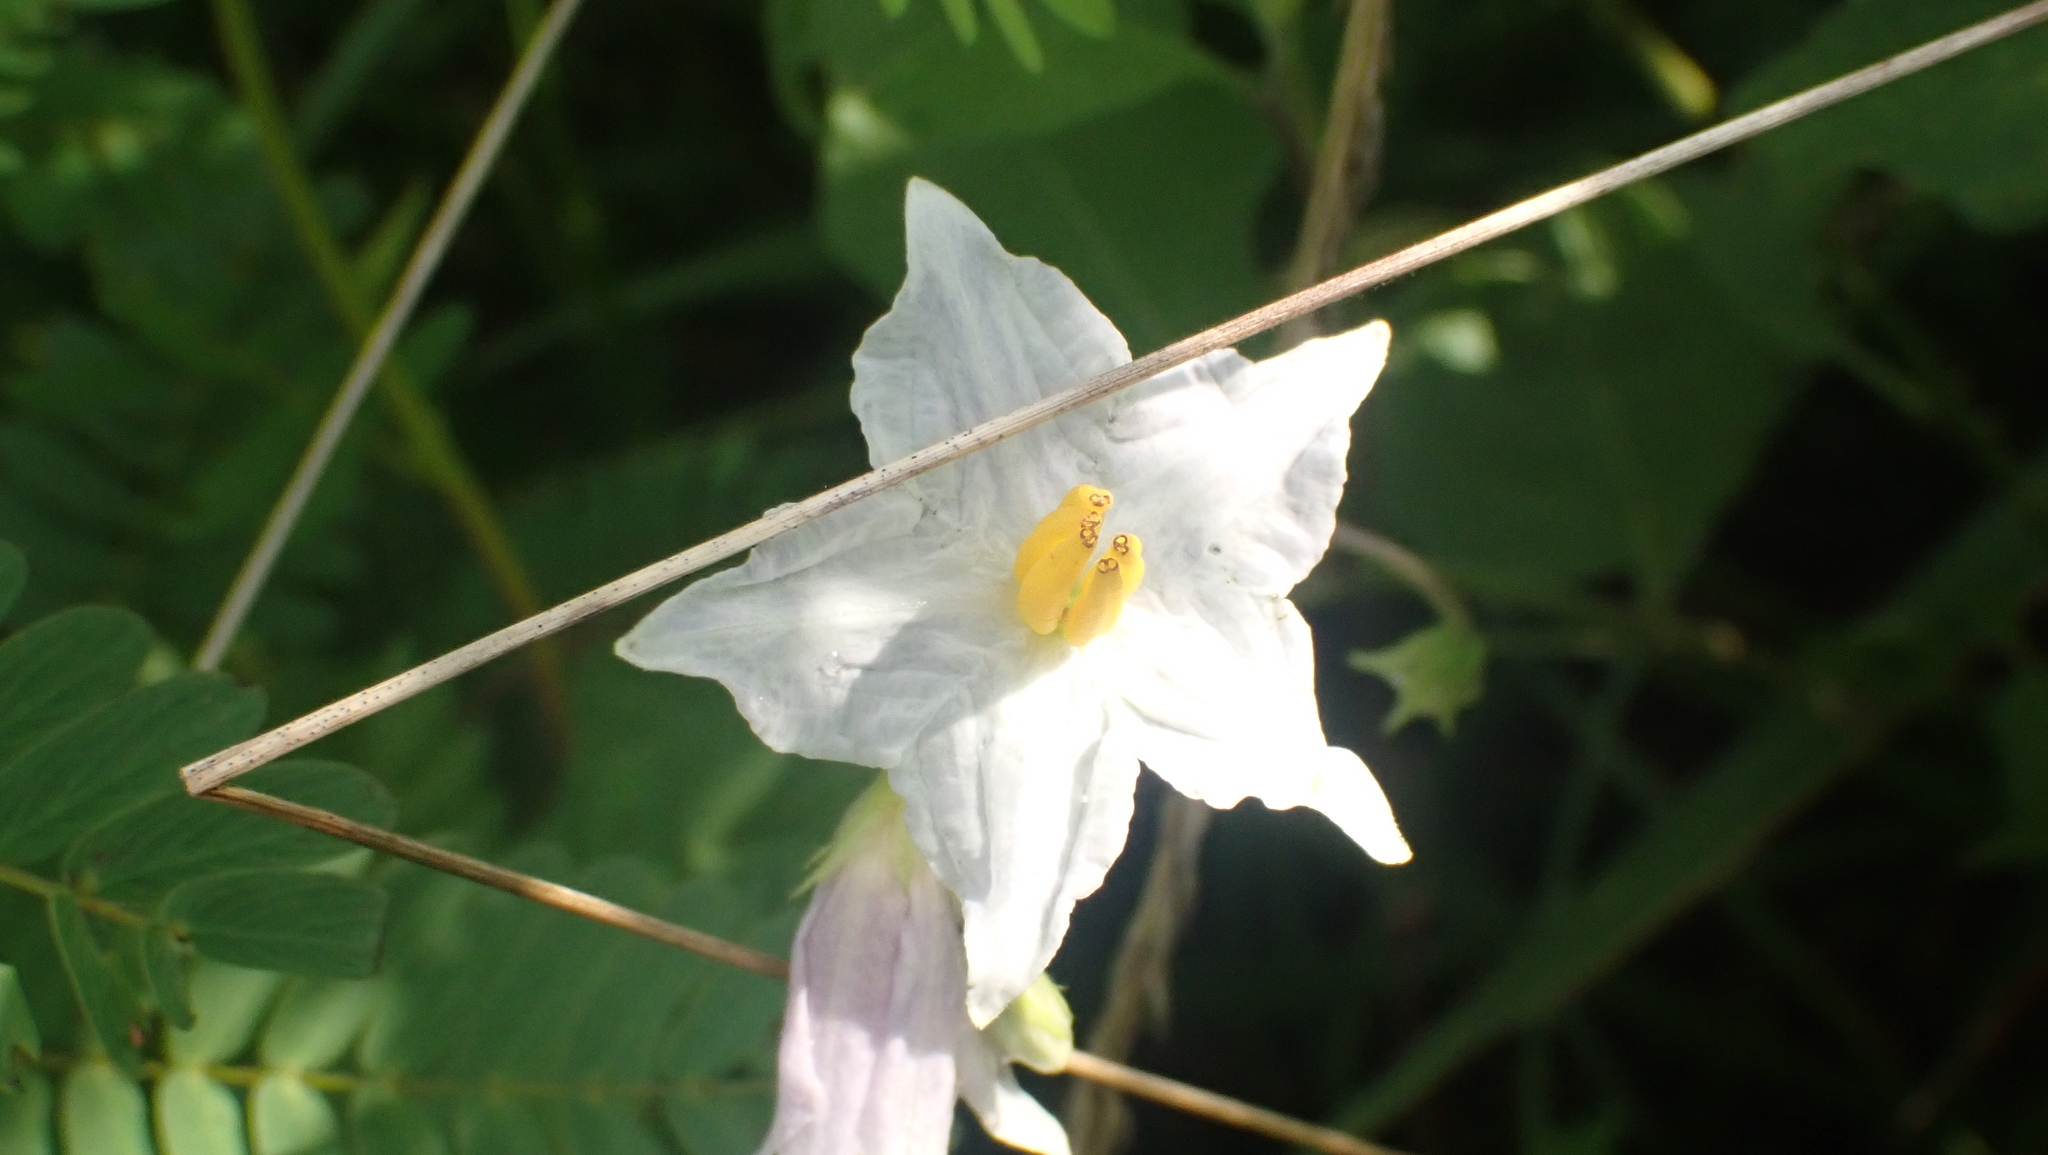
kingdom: Plantae
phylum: Tracheophyta
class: Magnoliopsida
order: Solanales
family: Solanaceae
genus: Solanum
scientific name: Solanum carolinense
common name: Horse-nettle
